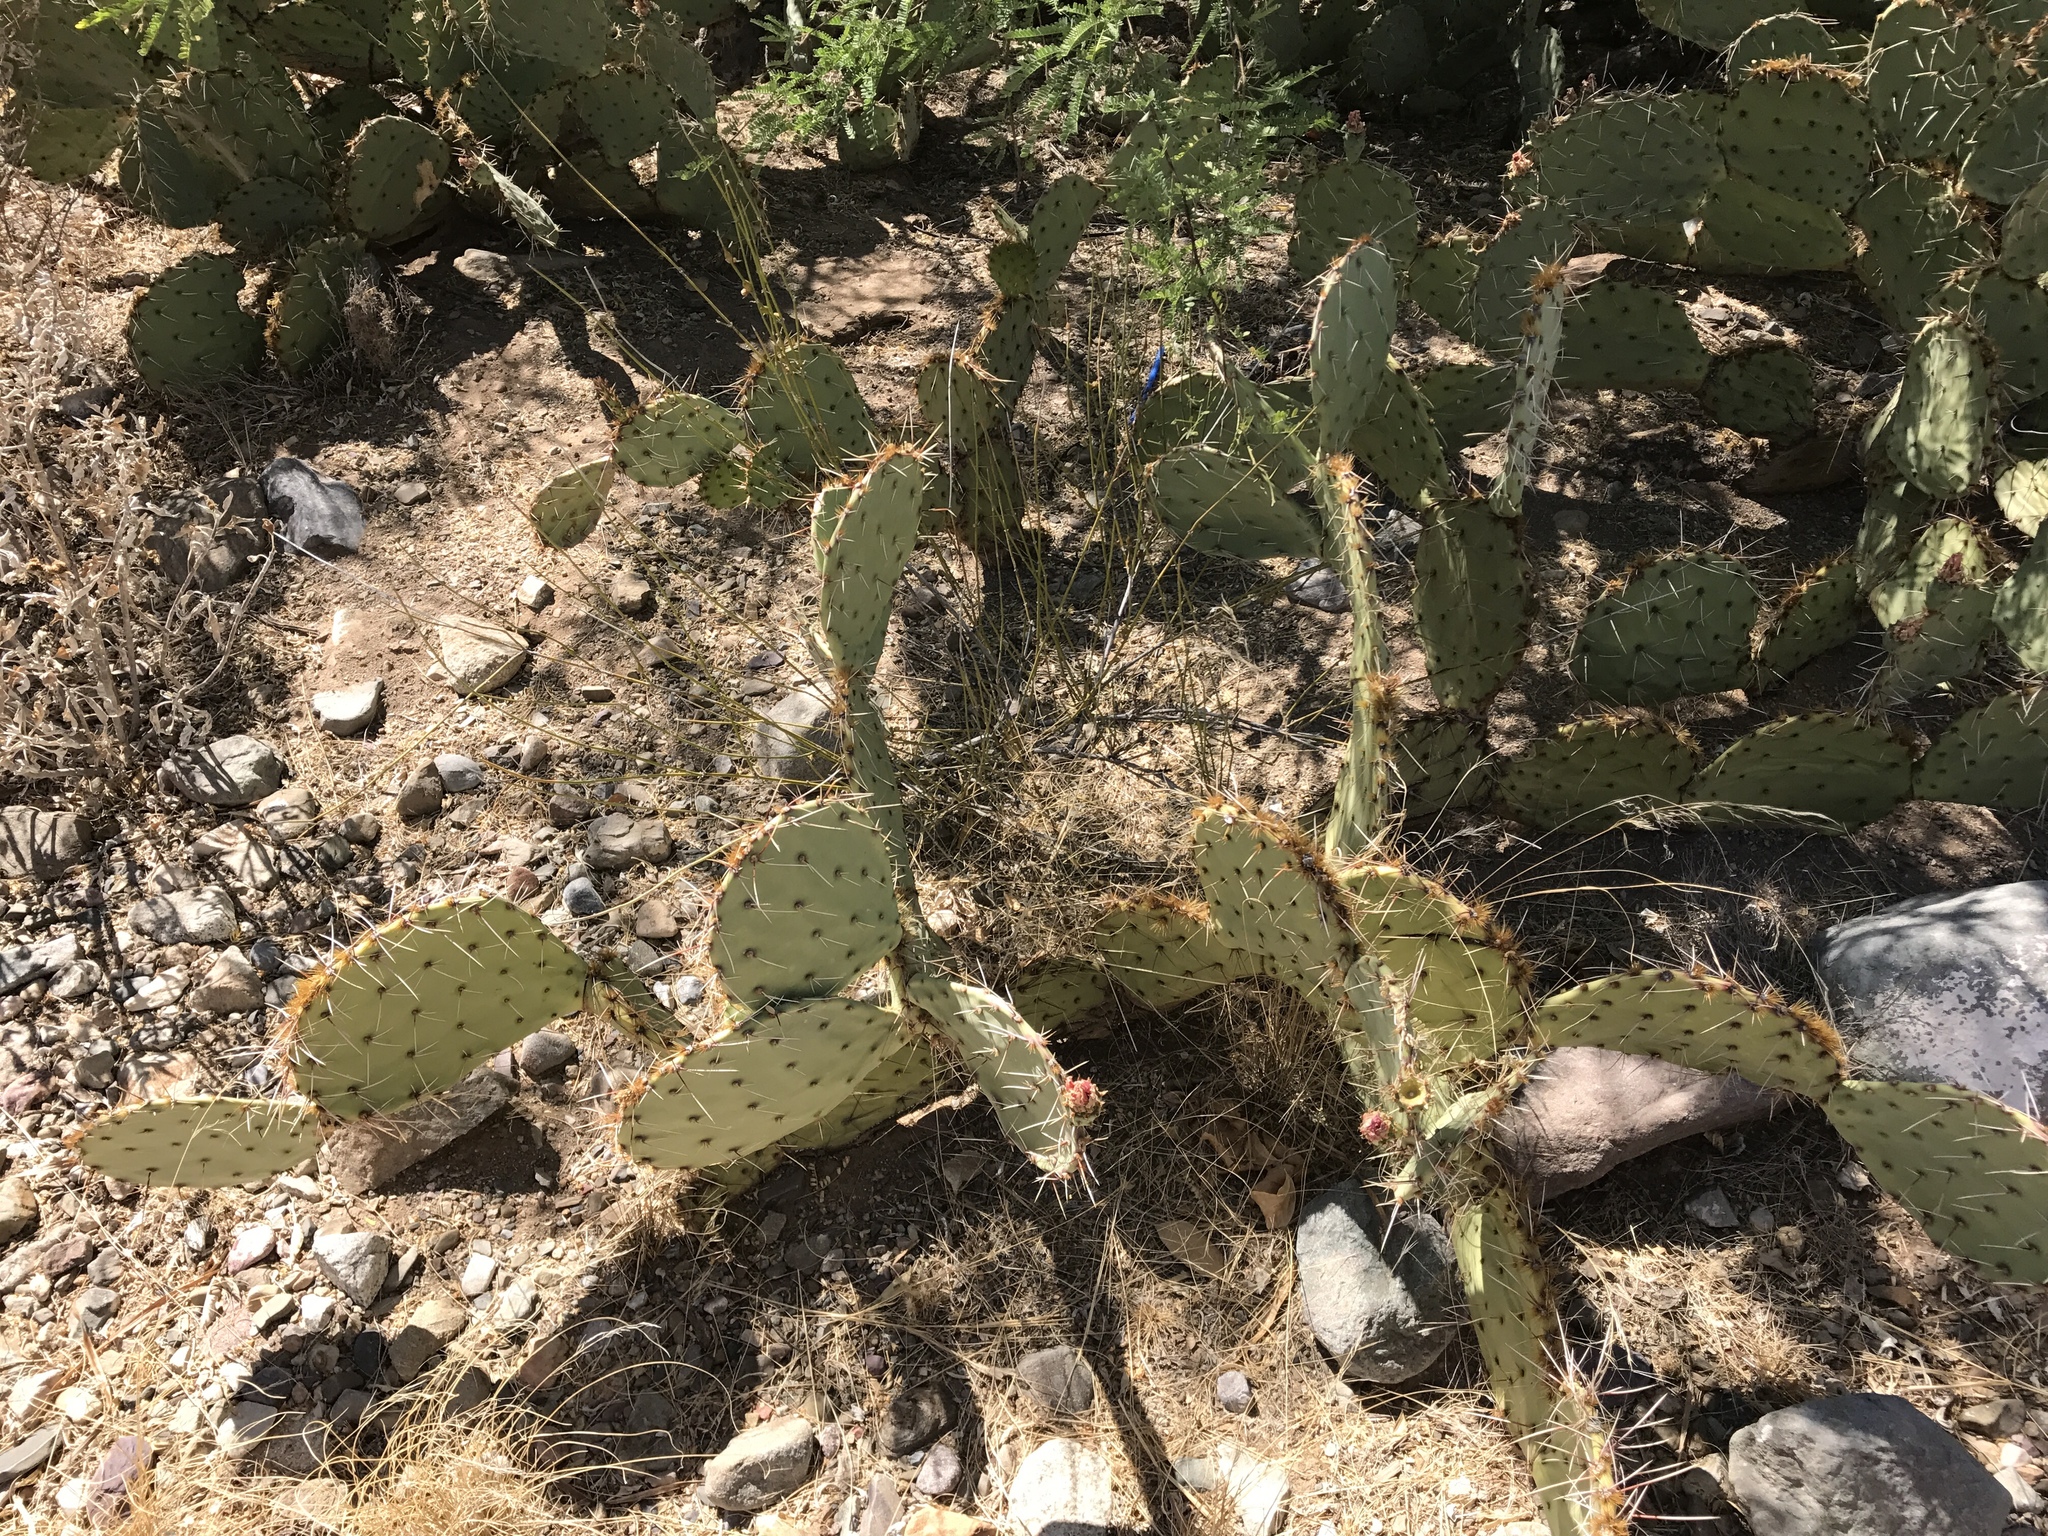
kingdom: Plantae
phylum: Tracheophyta
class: Magnoliopsida
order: Caryophyllales
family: Cactaceae
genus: Opuntia
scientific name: Opuntia engelmannii
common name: Cactus-apple
